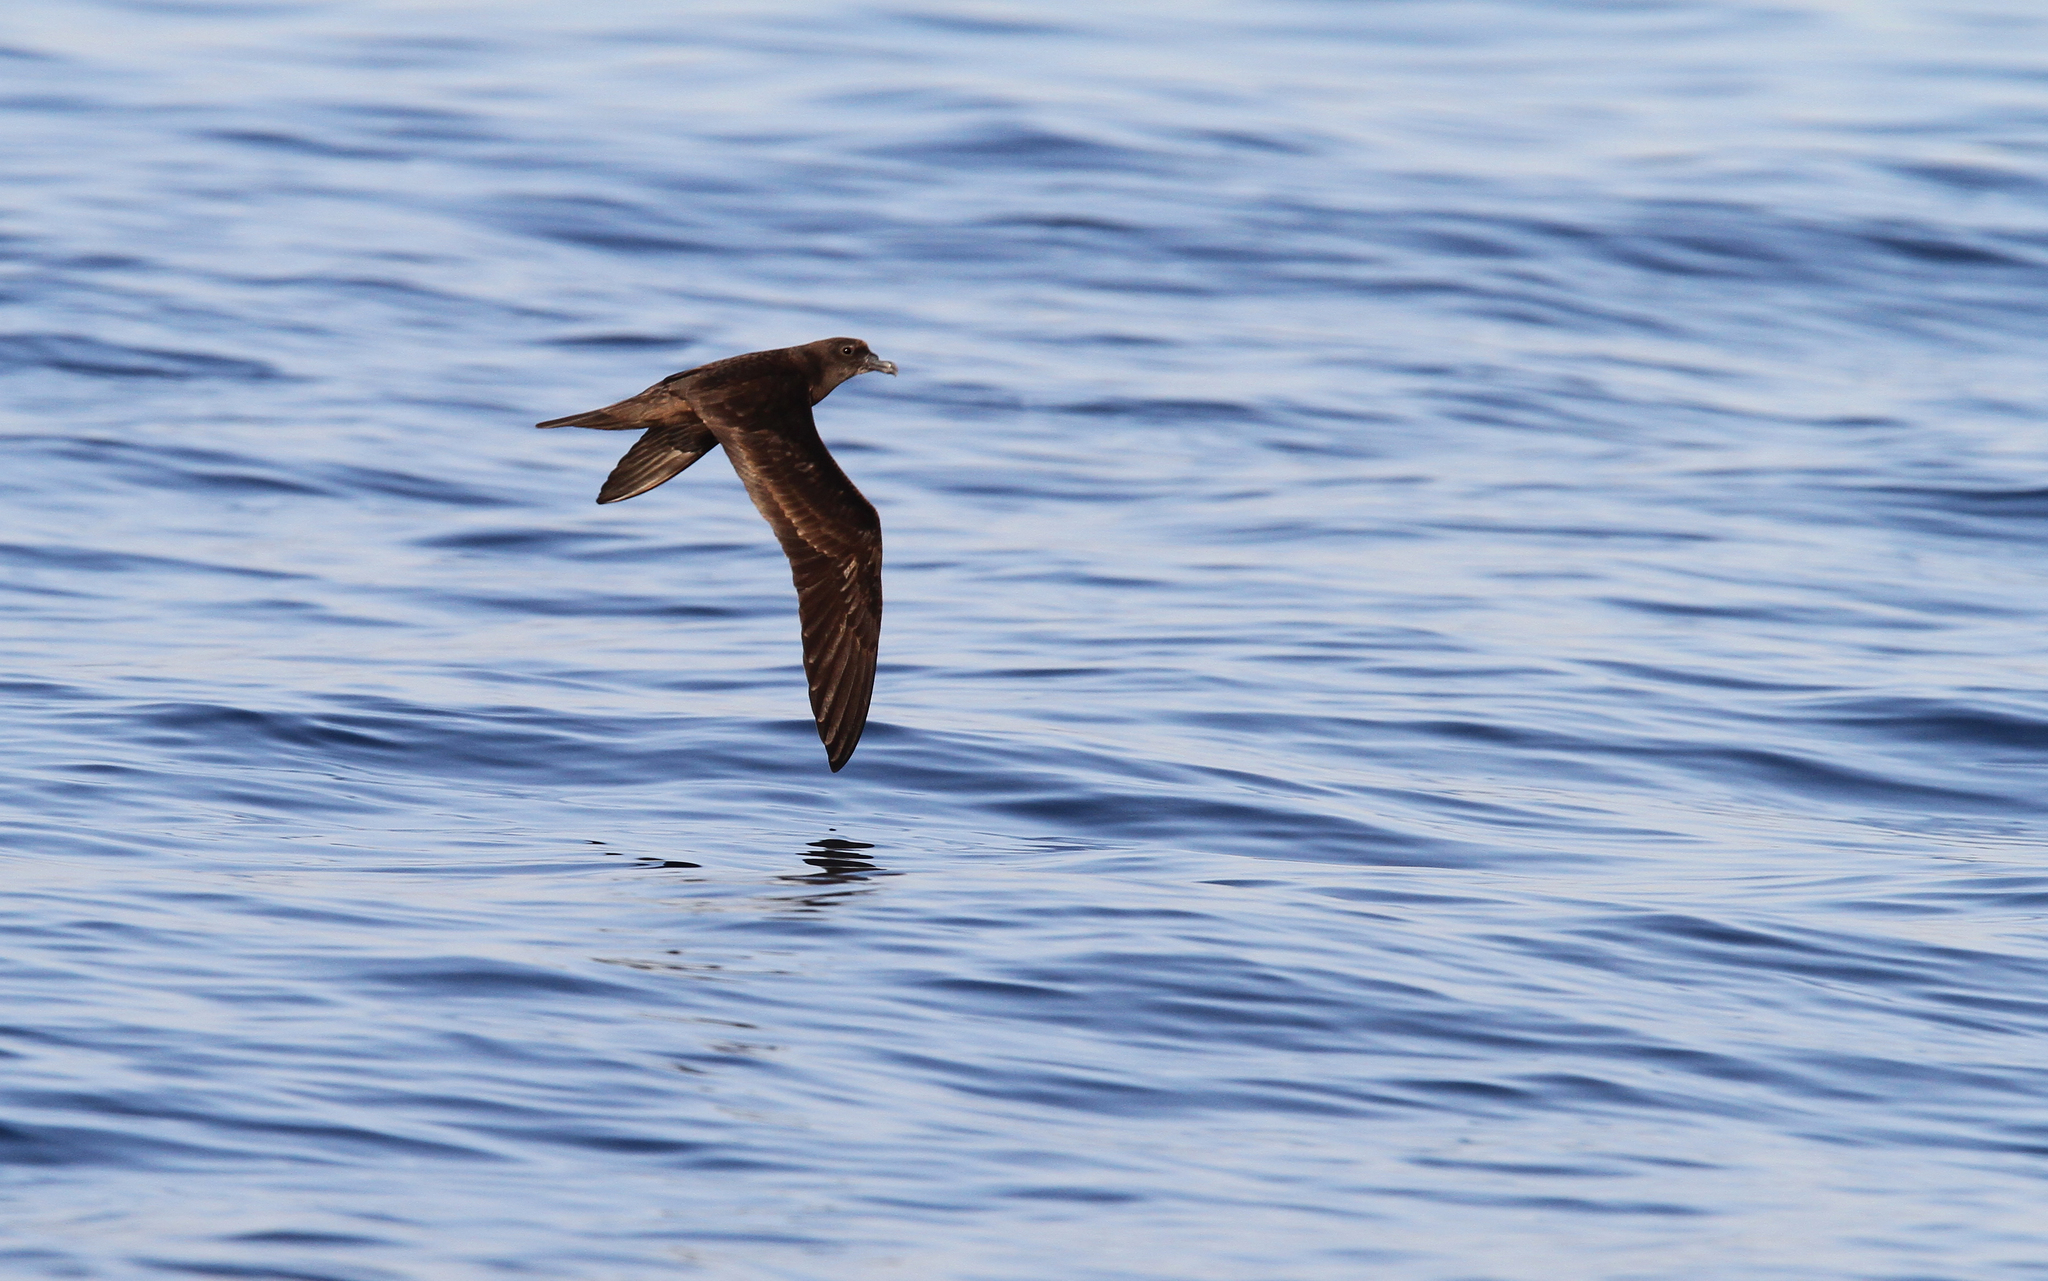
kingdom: Animalia
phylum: Chordata
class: Aves
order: Procellariiformes
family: Procellariidae
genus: Bulweria
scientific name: Bulweria fallax
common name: Jouanin's petrel
